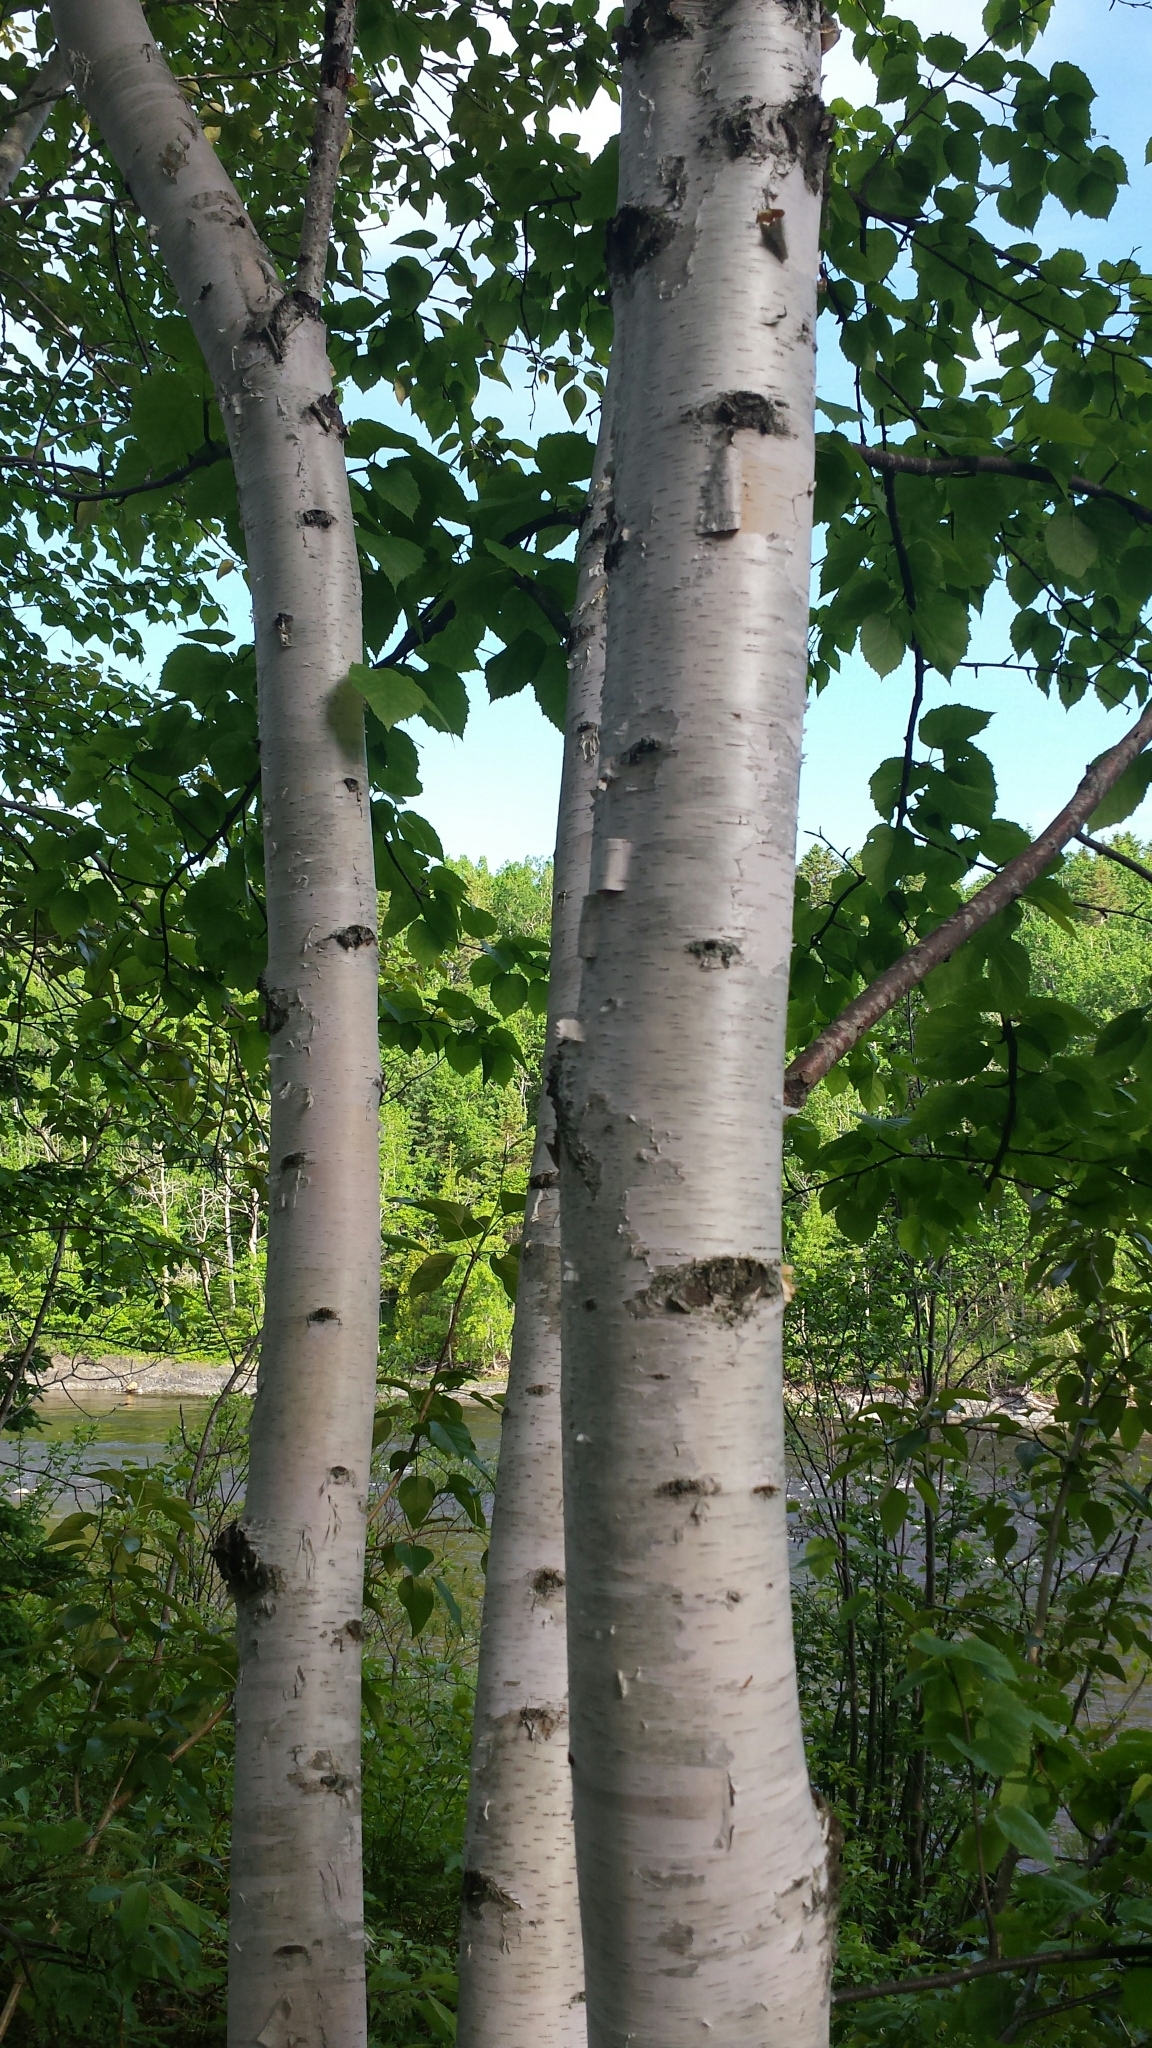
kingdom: Plantae
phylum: Tracheophyta
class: Magnoliopsida
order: Fagales
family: Betulaceae
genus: Betula
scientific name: Betula papyrifera
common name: Paper birch
